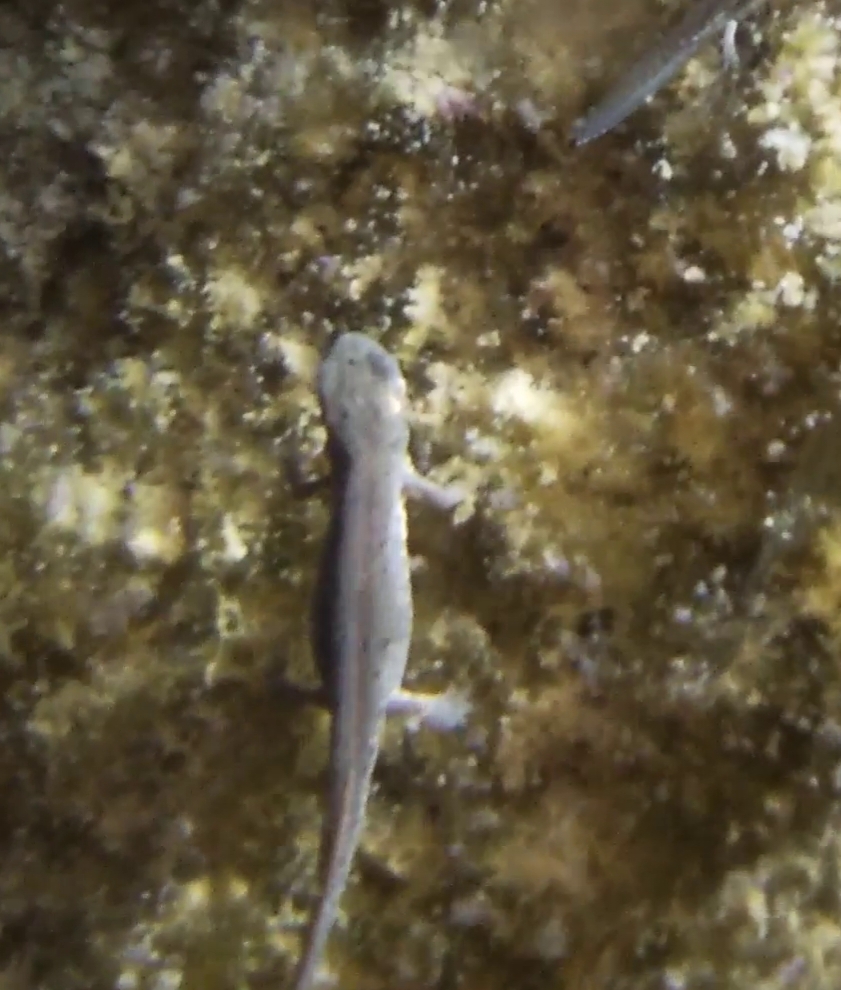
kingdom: Animalia
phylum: Chordata
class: Amphibia
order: Caudata
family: Salamandridae
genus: Lissotriton
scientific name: Lissotriton italicus
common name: Italian newt
